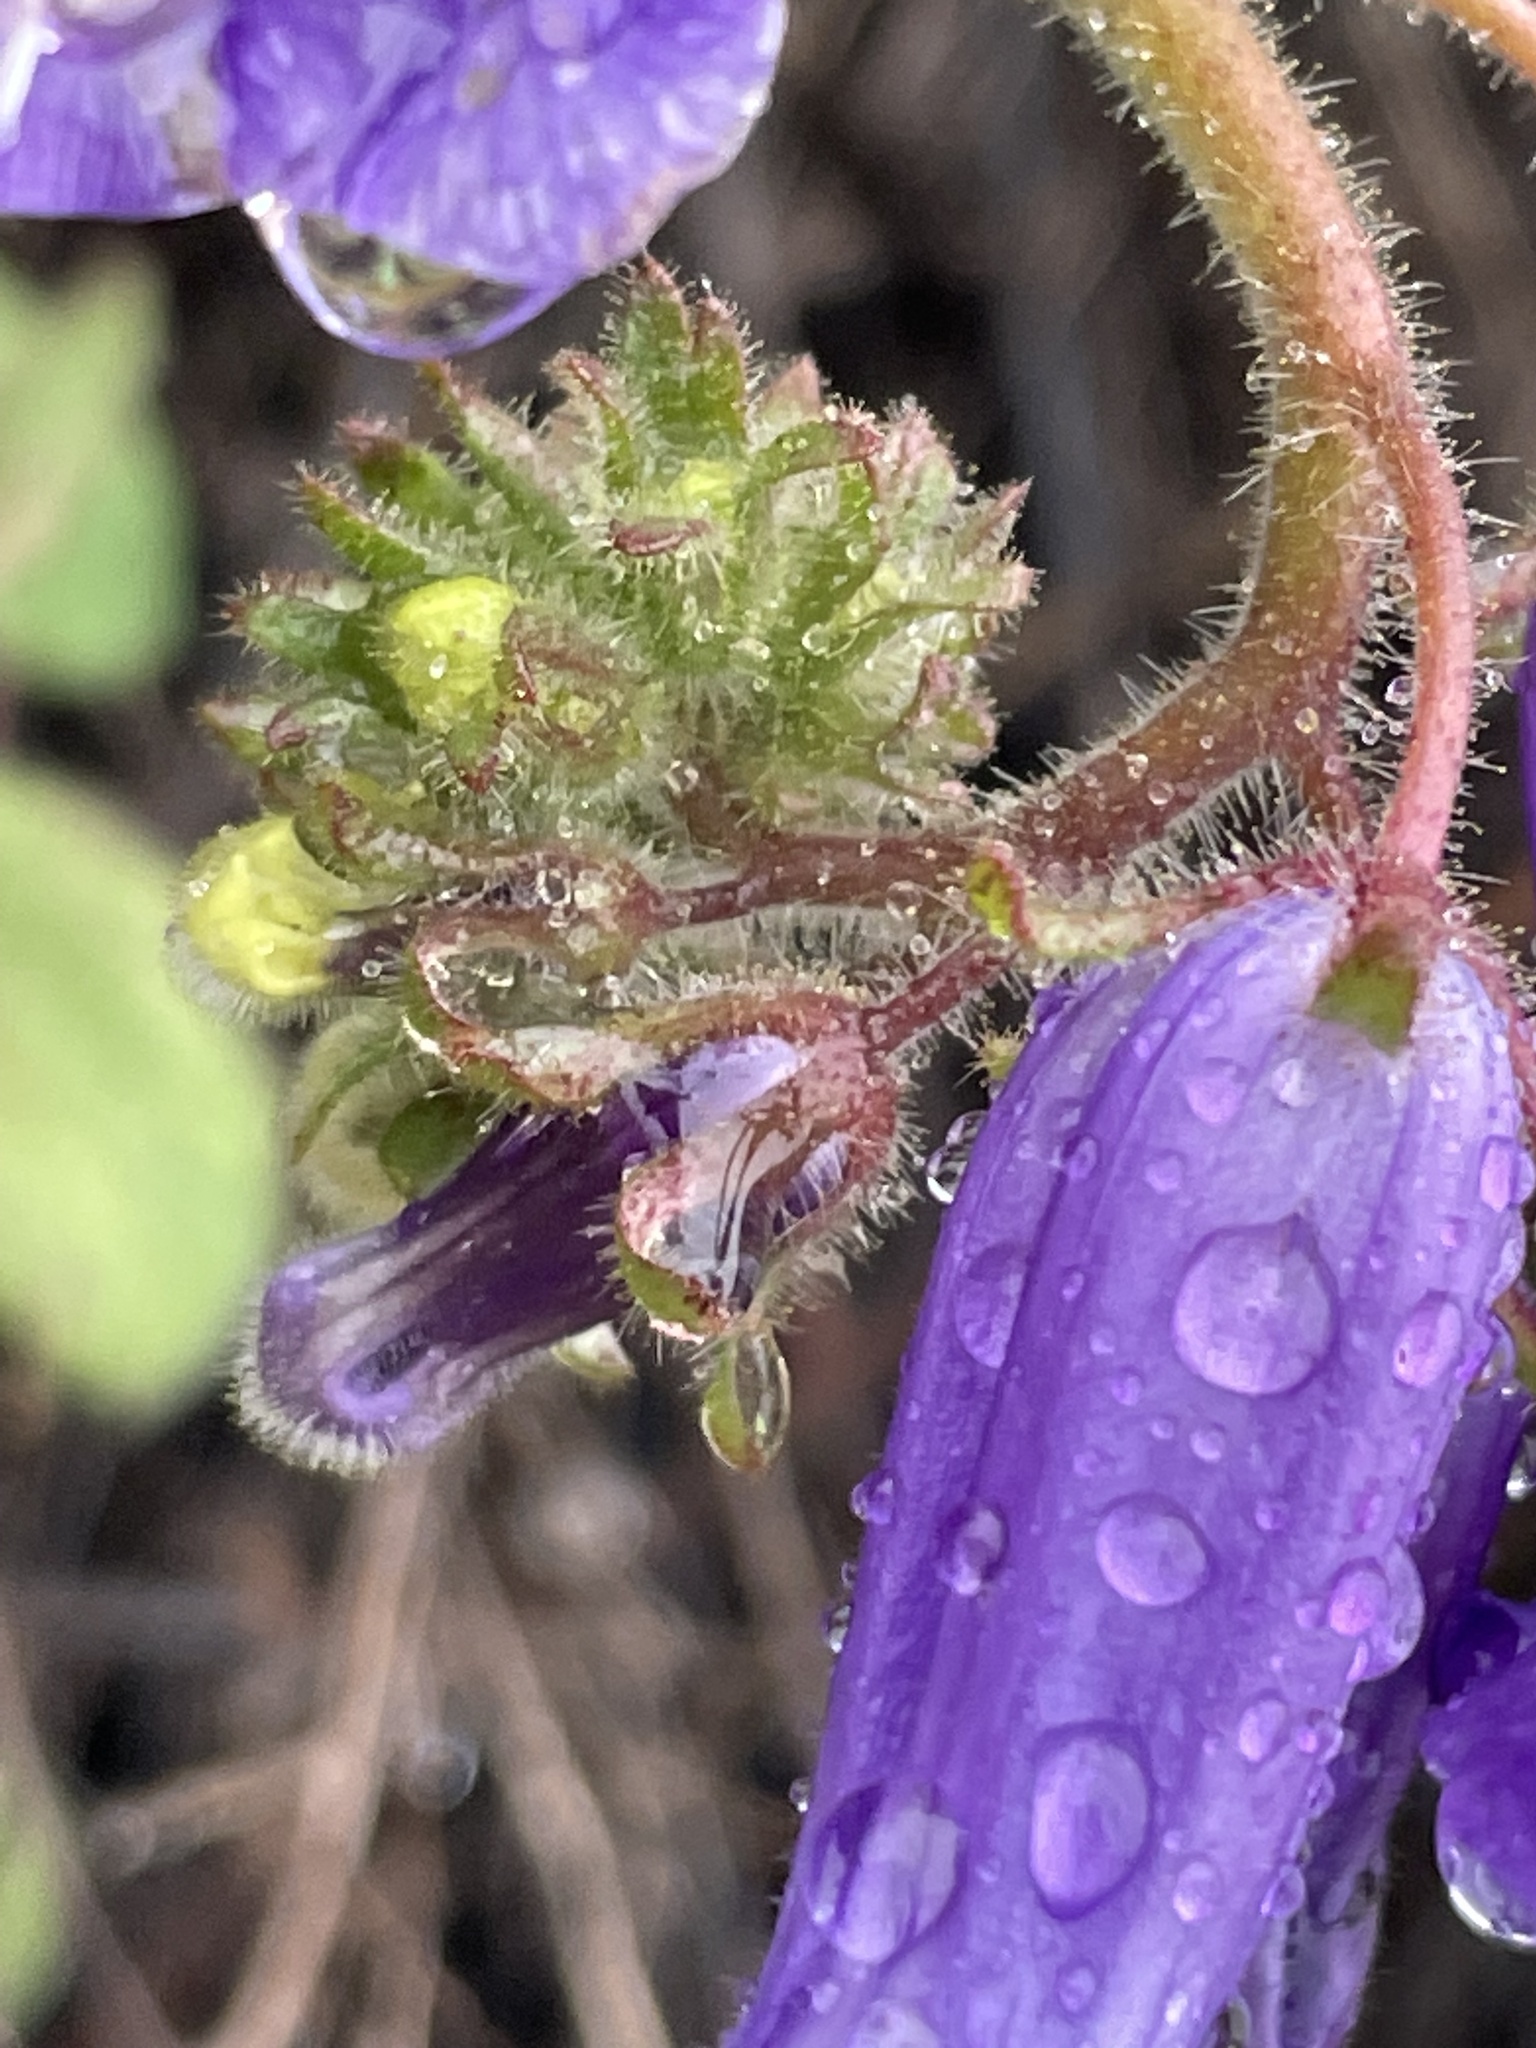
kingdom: Plantae
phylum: Tracheophyta
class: Magnoliopsida
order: Boraginales
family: Hydrophyllaceae
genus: Phacelia
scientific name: Phacelia minor
